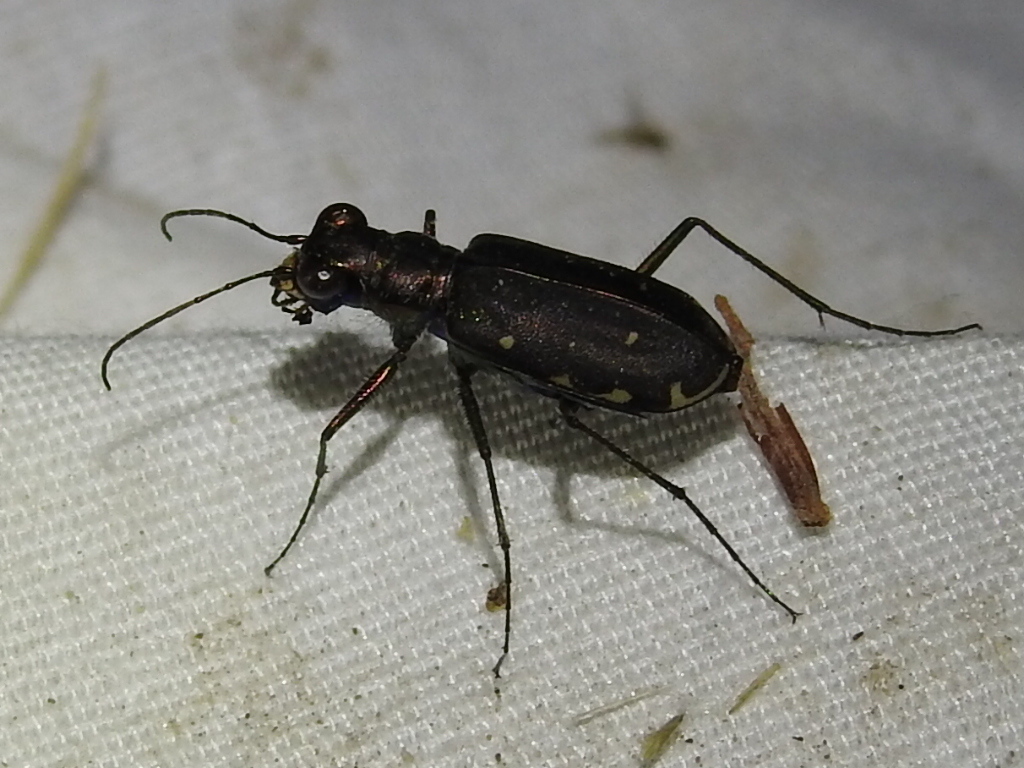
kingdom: Animalia
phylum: Arthropoda
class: Insecta
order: Coleoptera
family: Carabidae
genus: Cicindela
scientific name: Cicindela punctulata
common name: Punctured tiger beetle
